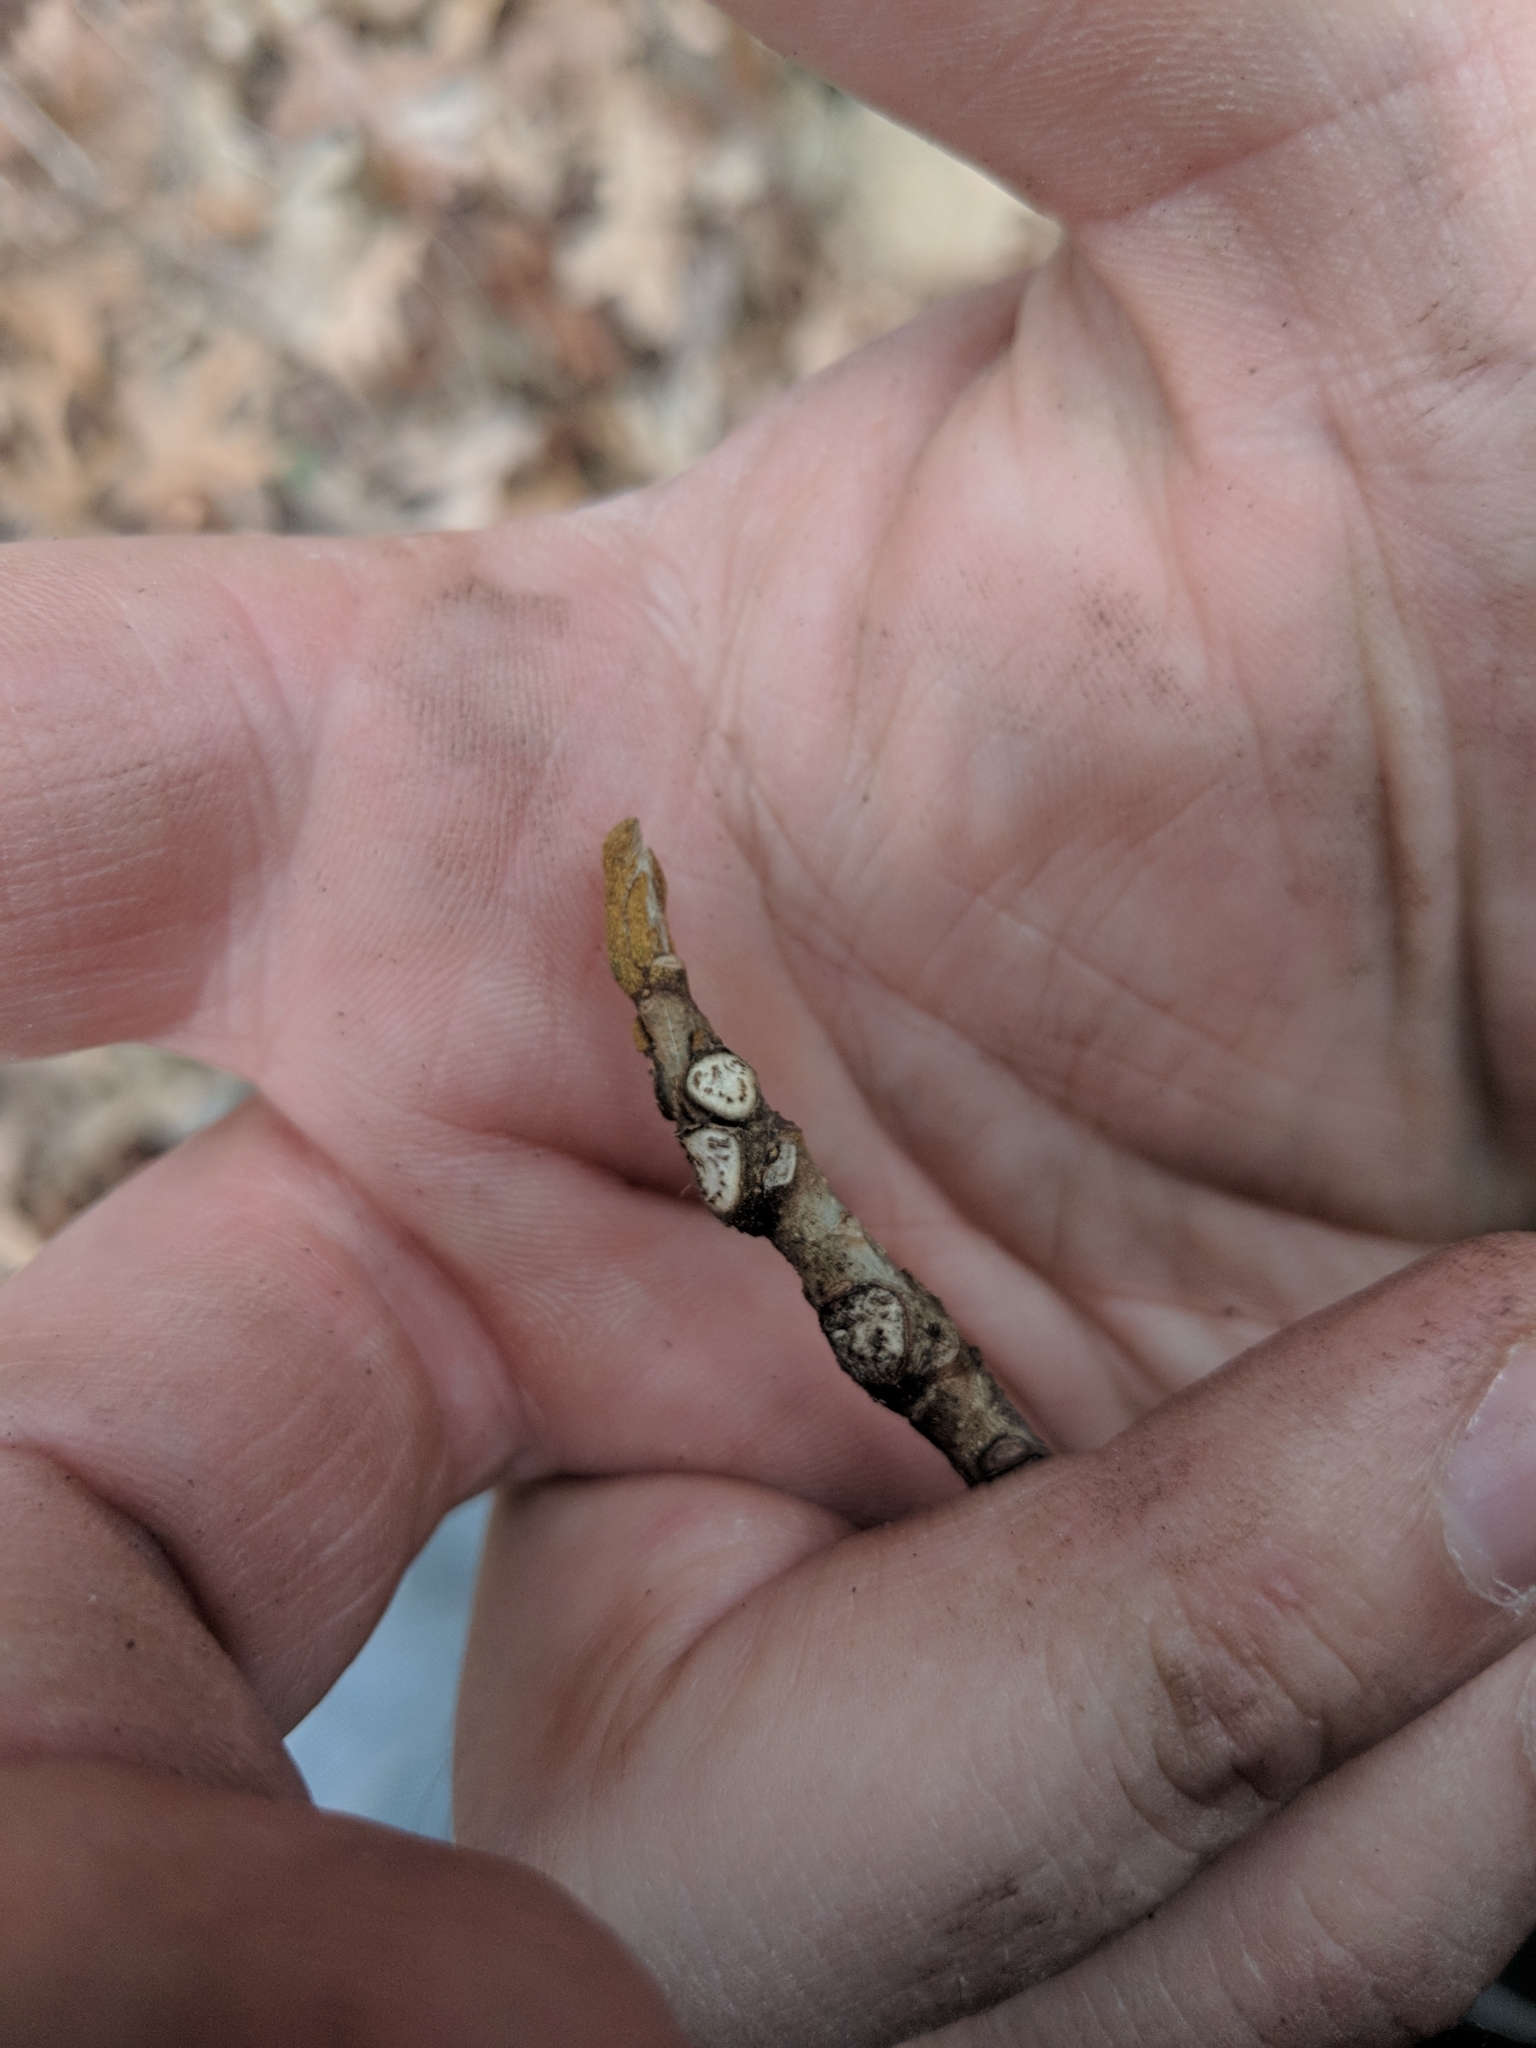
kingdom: Plantae
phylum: Tracheophyta
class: Magnoliopsida
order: Fagales
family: Juglandaceae
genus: Carya
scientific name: Carya cordiformis
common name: Bitternut hickory
